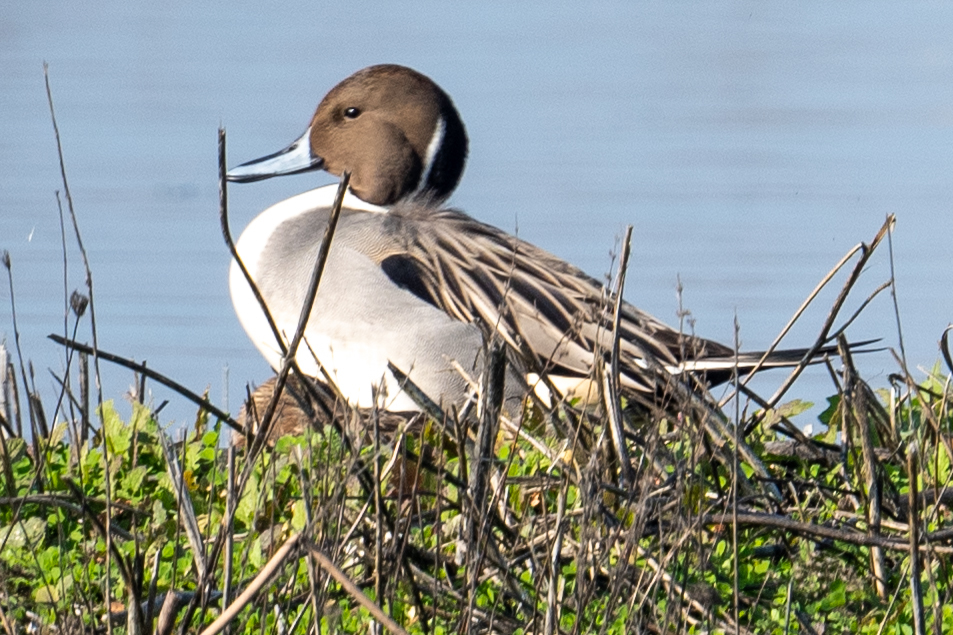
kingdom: Animalia
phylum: Chordata
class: Aves
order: Anseriformes
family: Anatidae
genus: Anas
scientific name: Anas acuta
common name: Northern pintail
